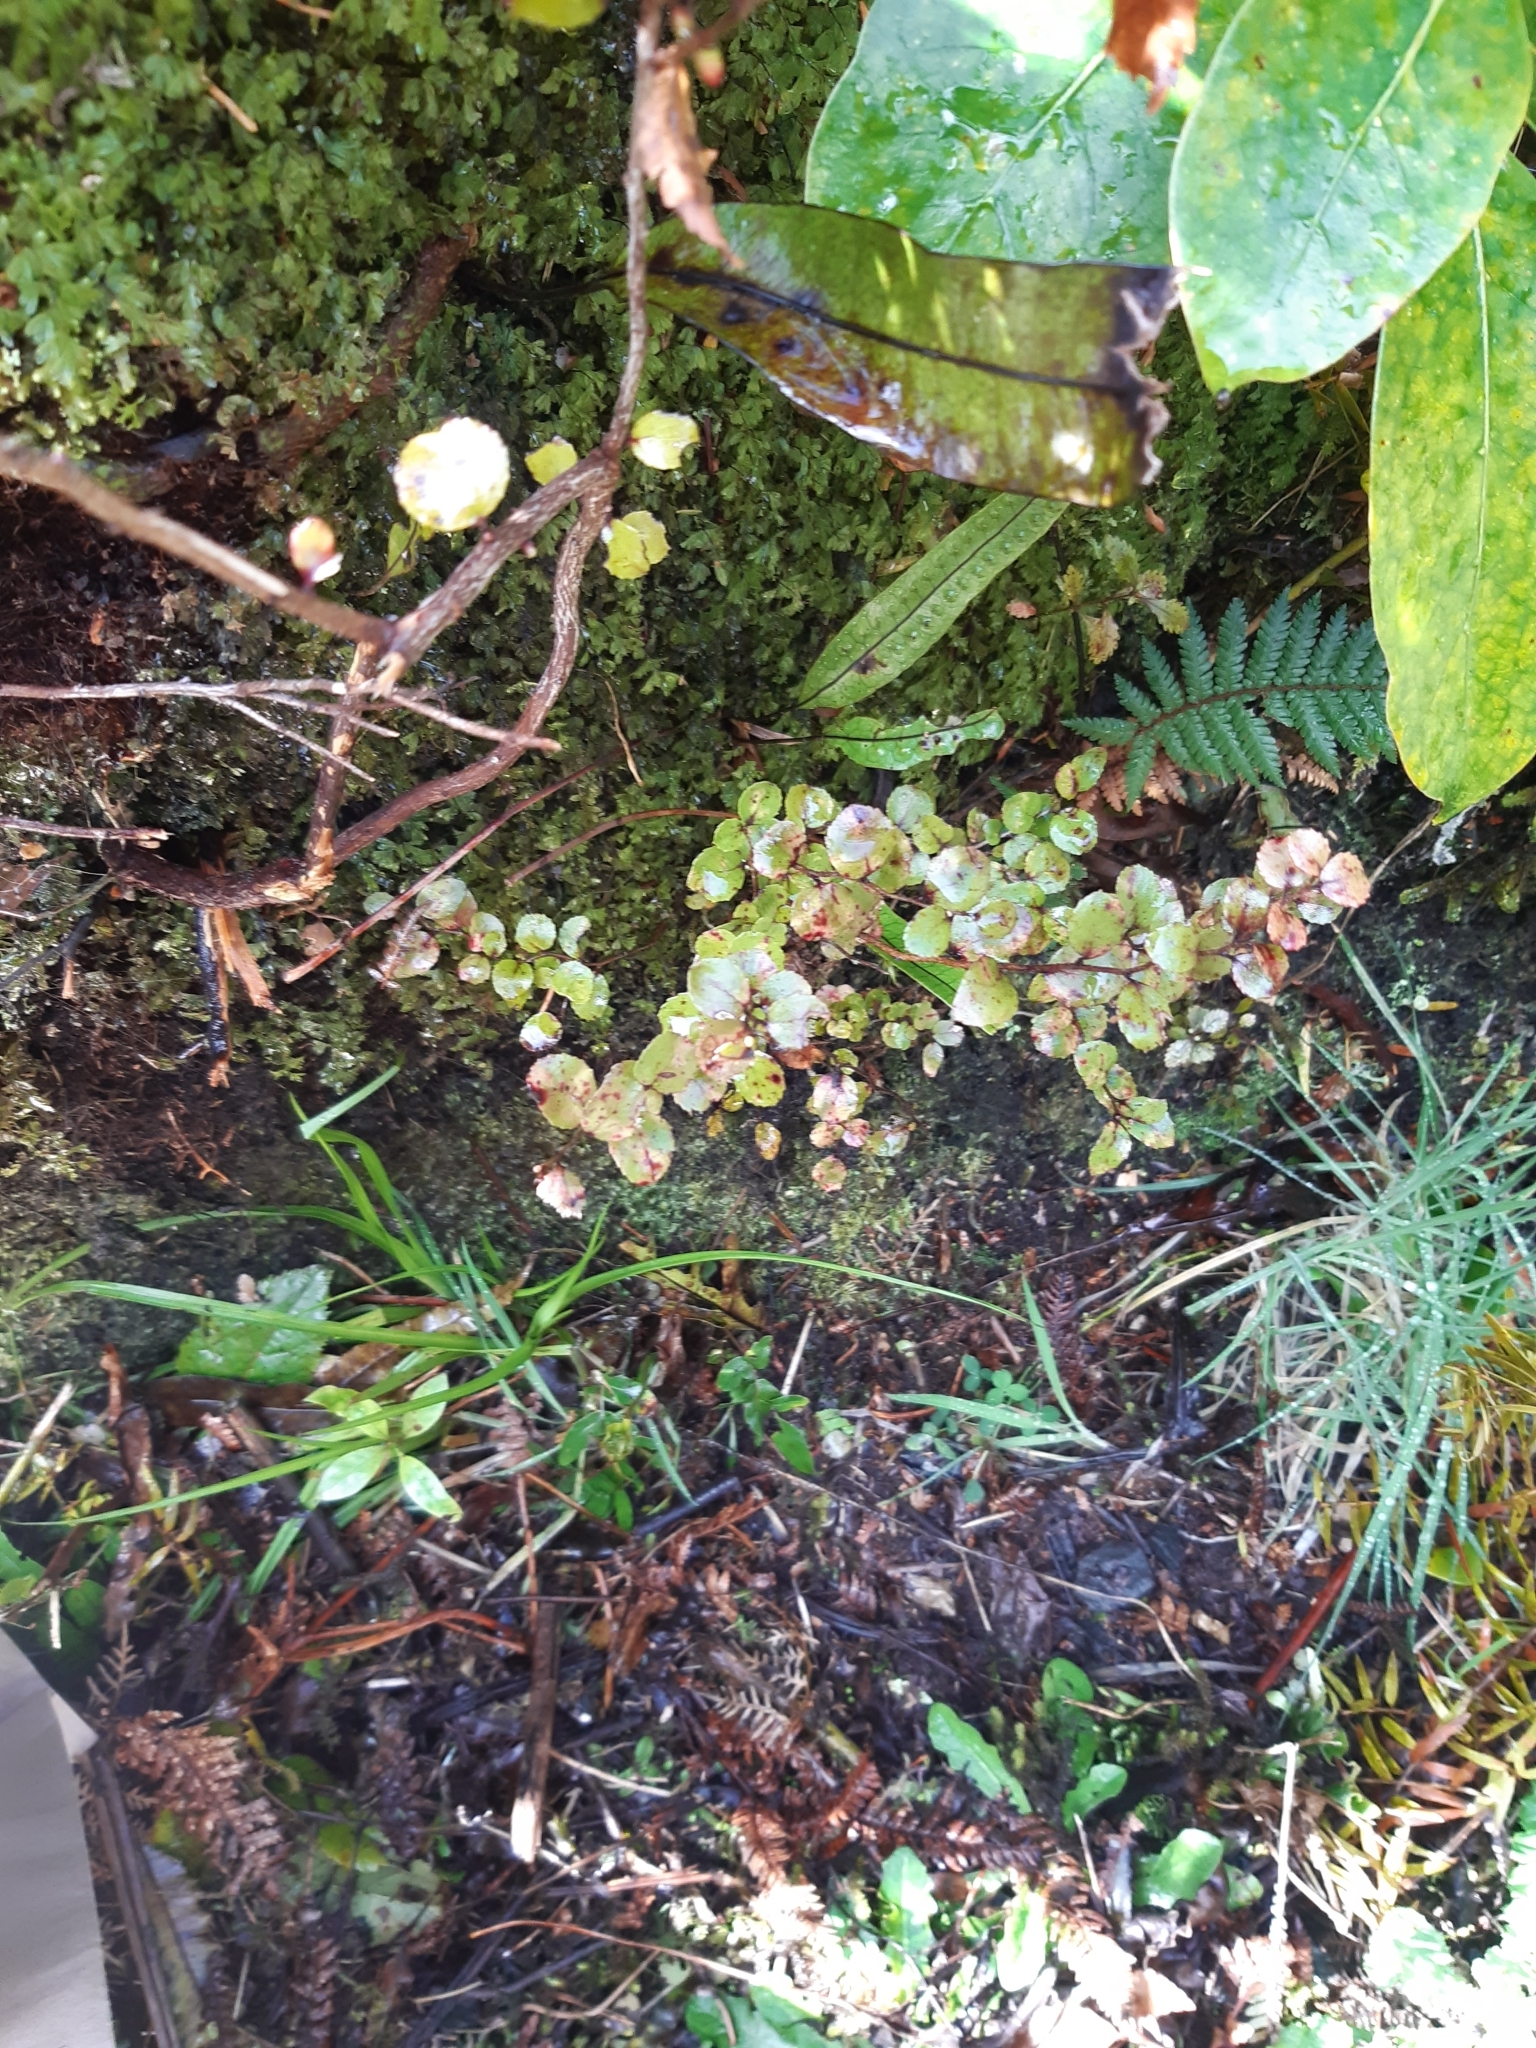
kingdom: Plantae
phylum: Tracheophyta
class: Magnoliopsida
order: Ericales
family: Ericaceae
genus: Gaultheria
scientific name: Gaultheria antipoda
